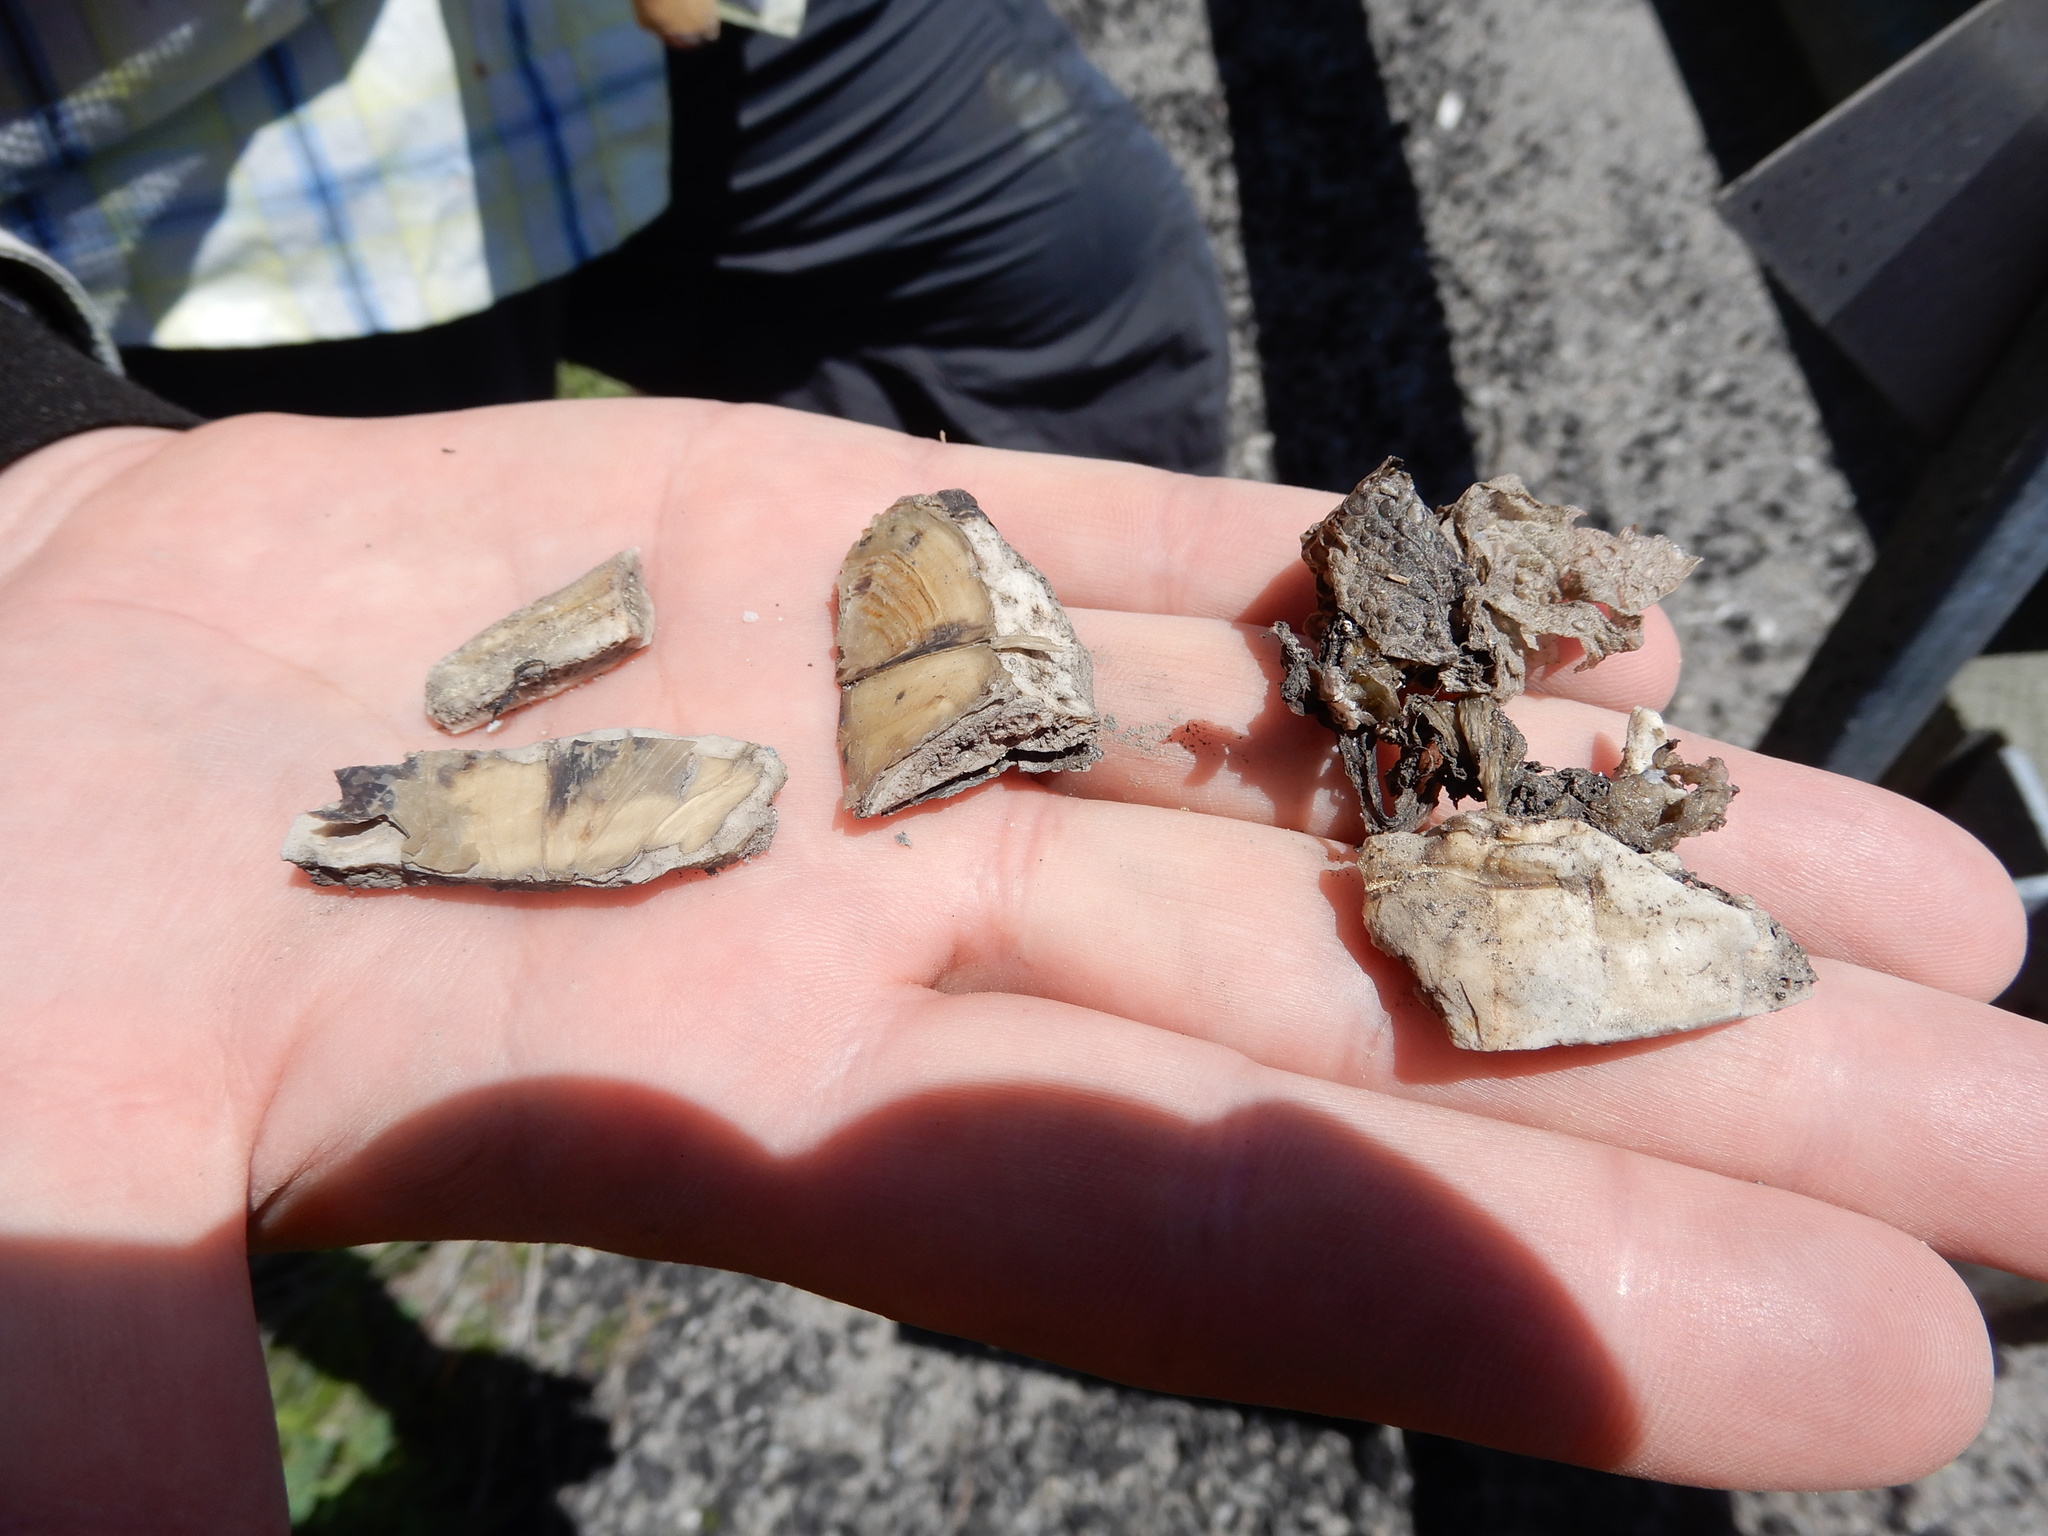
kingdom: Animalia
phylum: Chordata
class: Testudines
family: Emydidae
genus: Emys
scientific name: Emys blandingii
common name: Blanding's turtle
